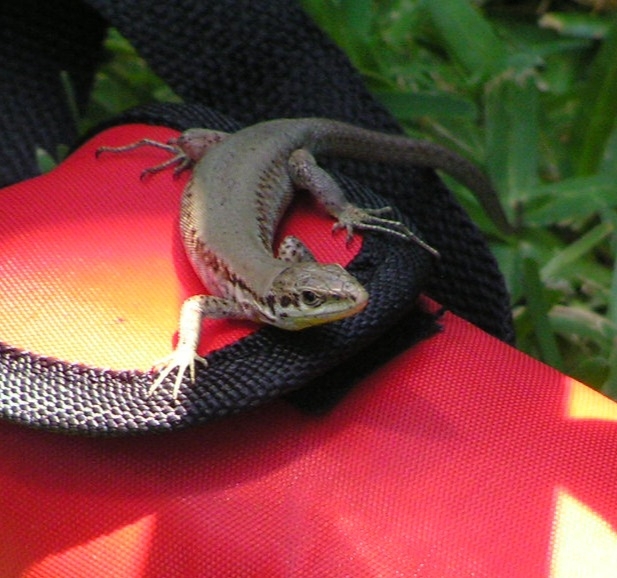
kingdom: Animalia
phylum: Chordata
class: Squamata
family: Lacertidae
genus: Phoenicolacerta
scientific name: Phoenicolacerta laevis
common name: Lebanon lizard
